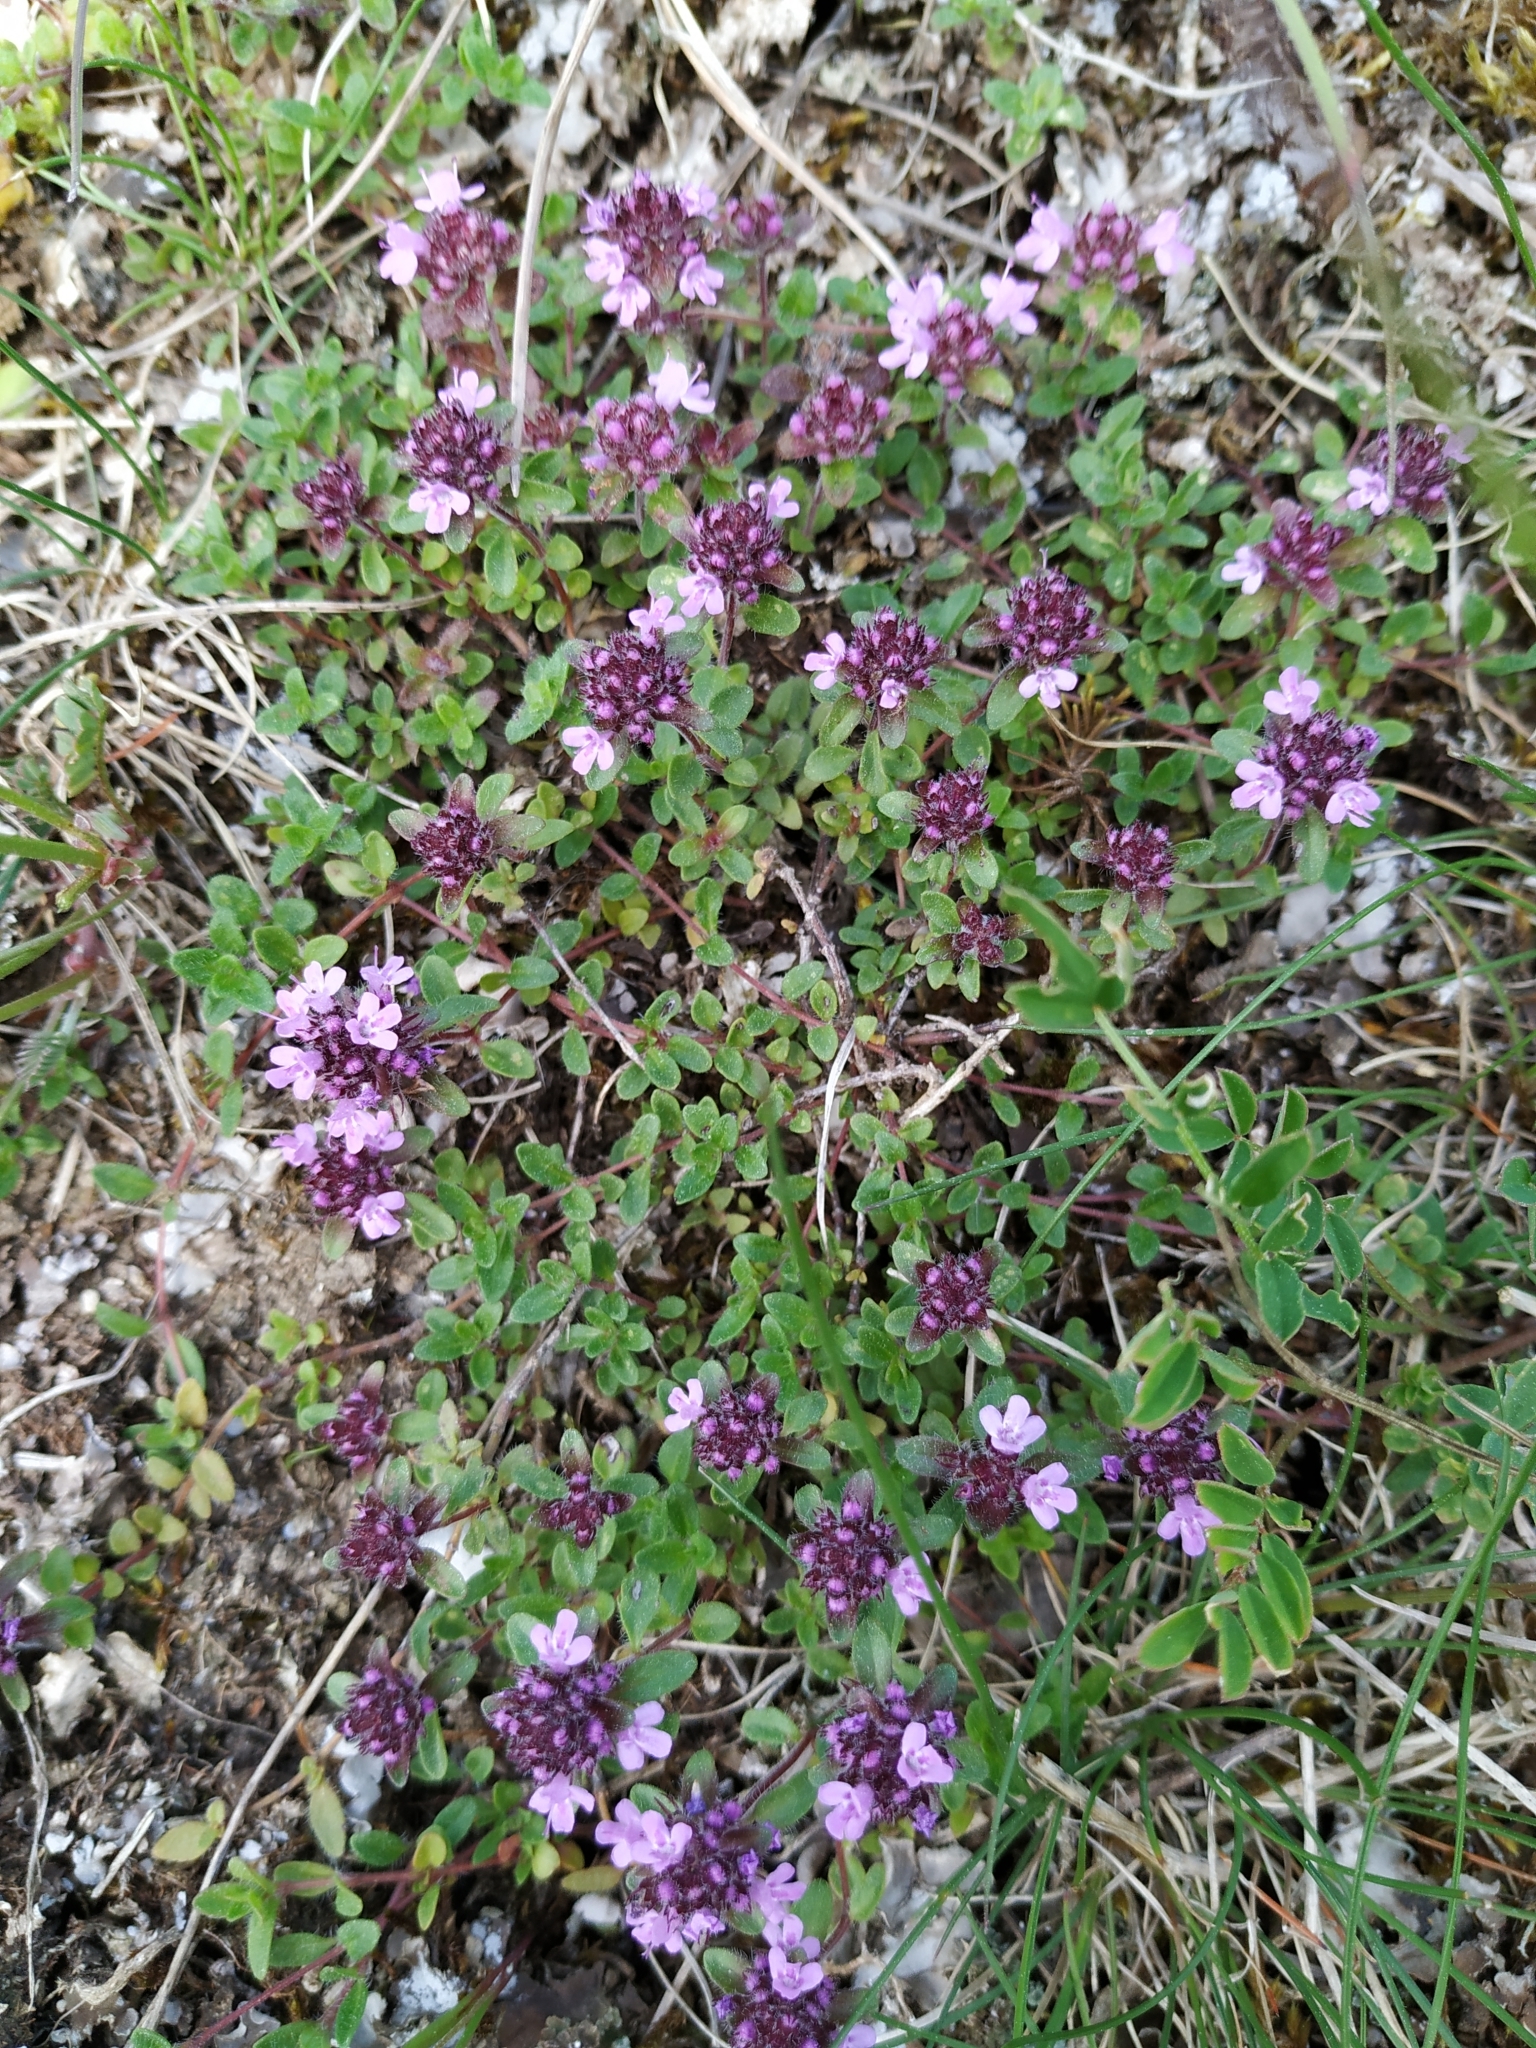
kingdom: Plantae
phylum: Tracheophyta
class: Magnoliopsida
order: Lamiales
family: Lamiaceae
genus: Thymus
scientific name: Thymus pulegioides
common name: Large thyme
